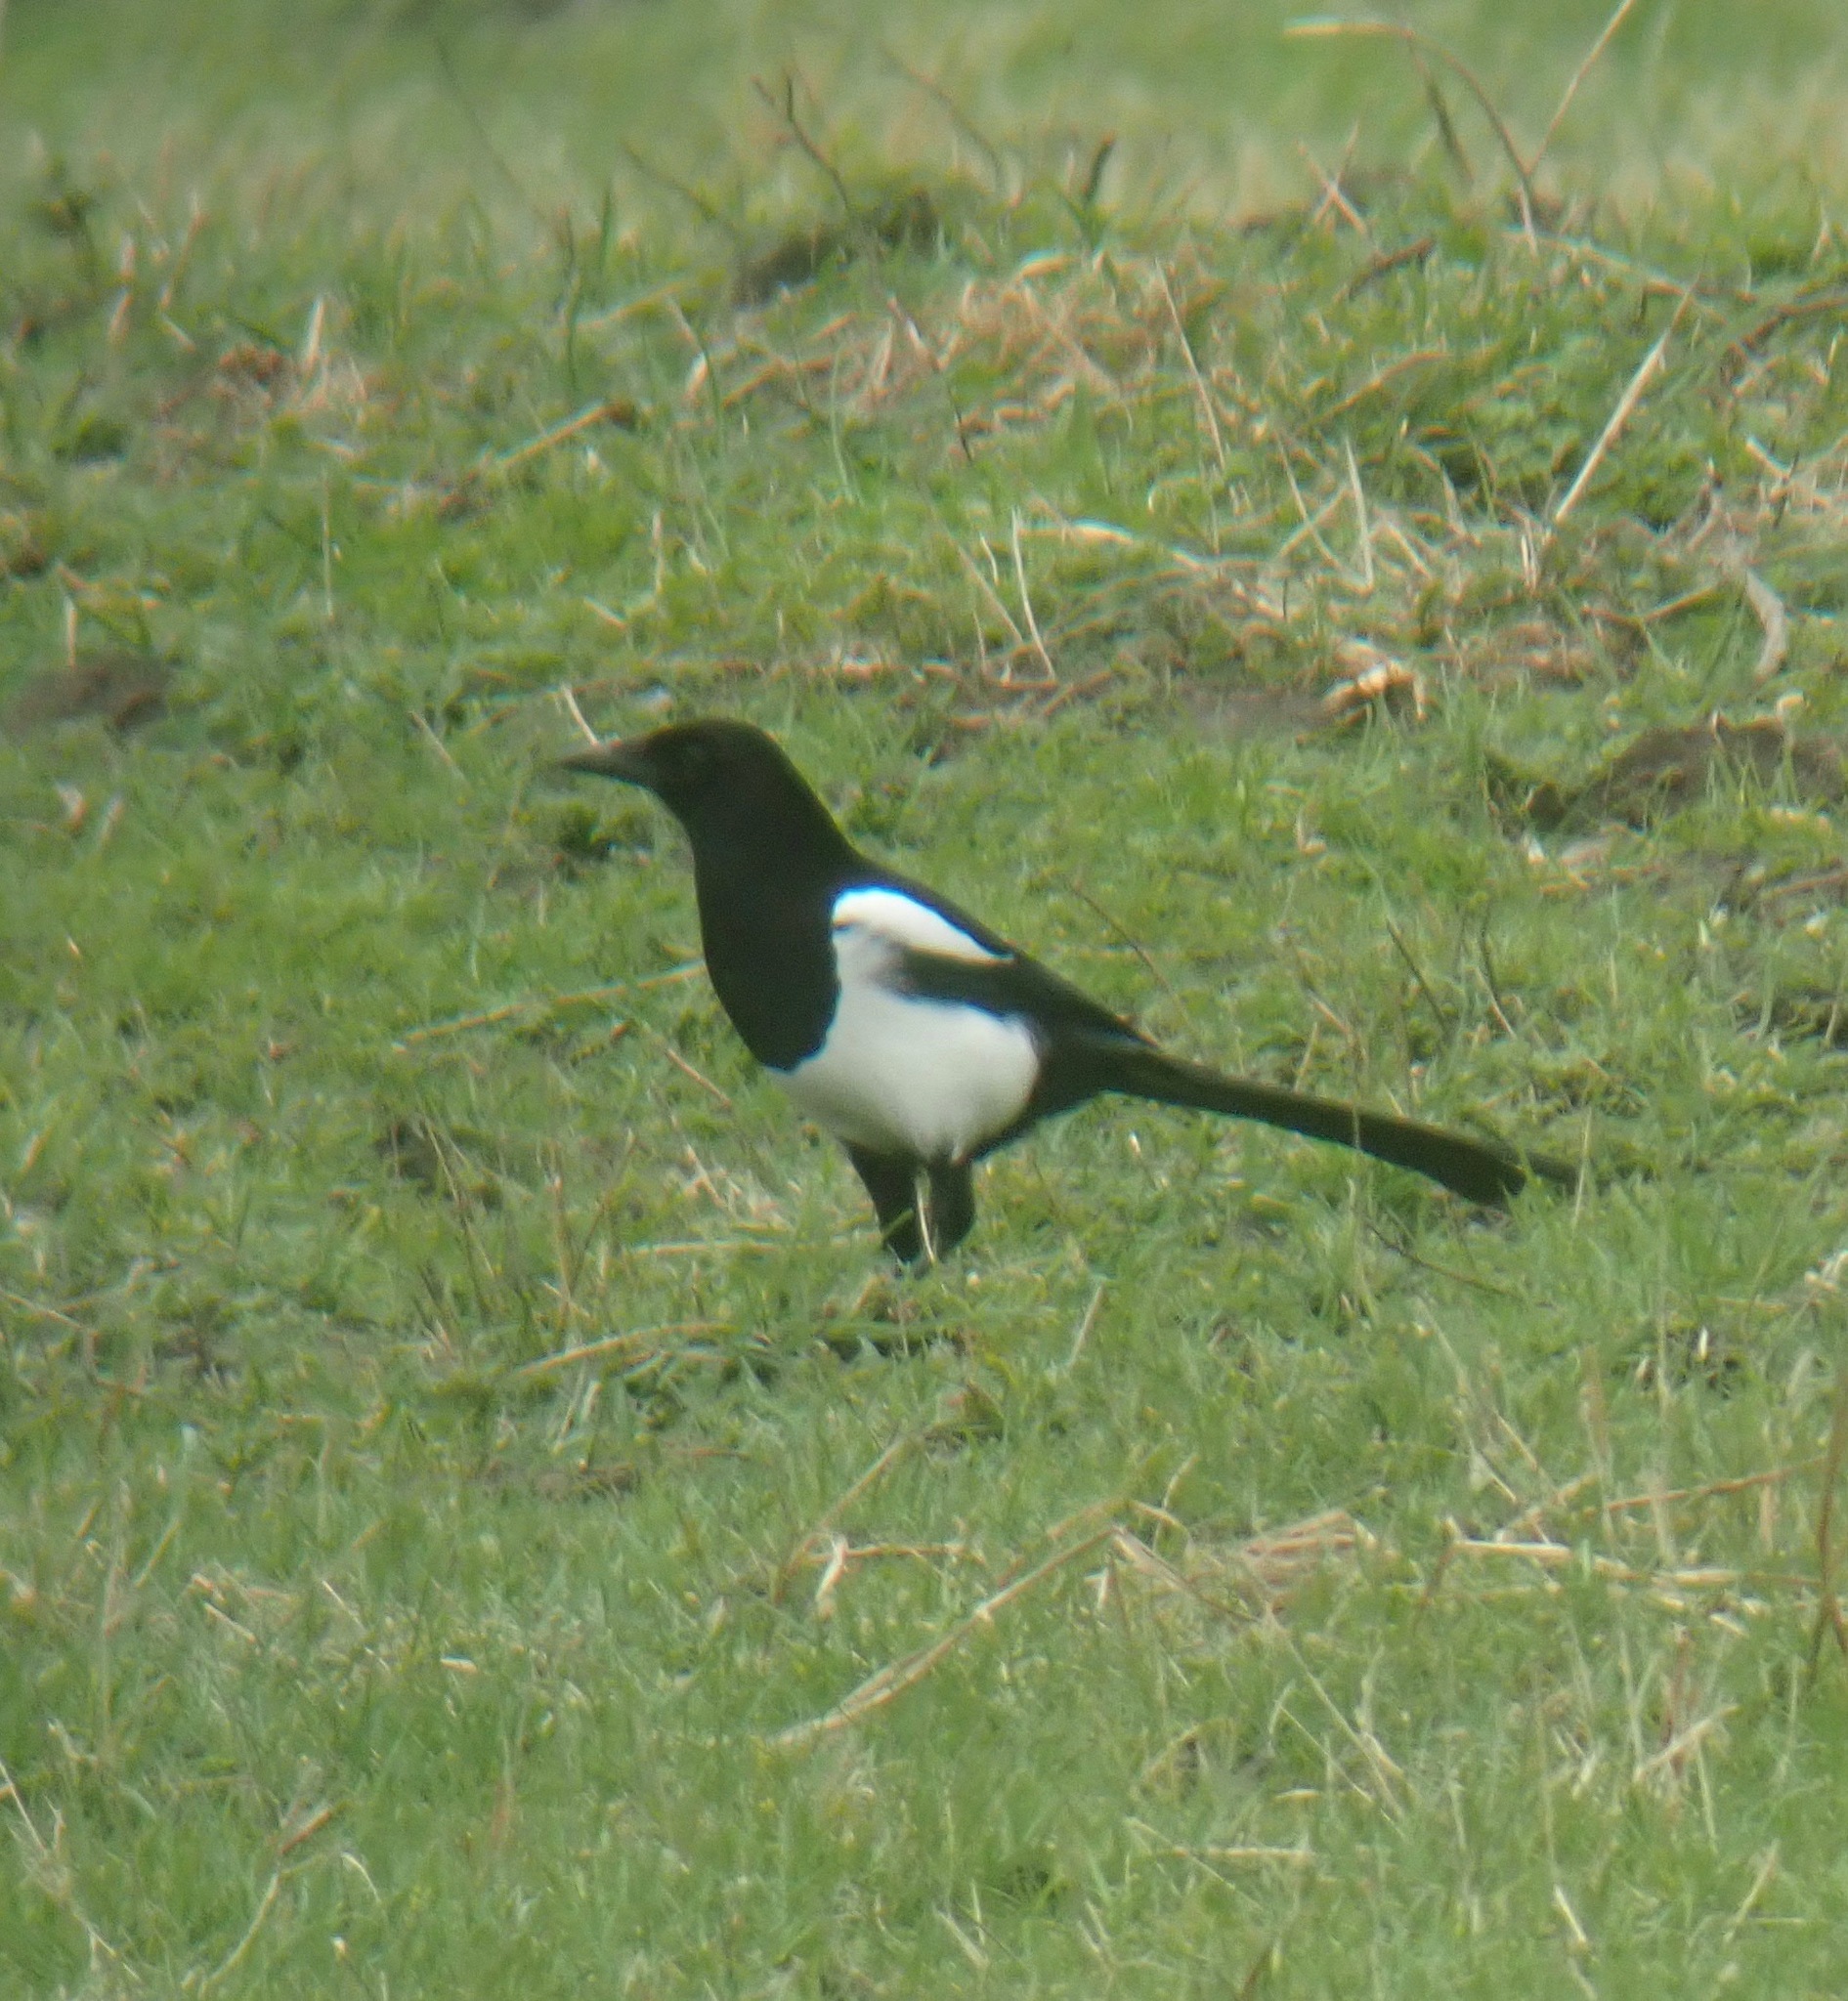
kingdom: Animalia
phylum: Chordata
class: Aves
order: Passeriformes
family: Corvidae
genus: Pica
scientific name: Pica pica
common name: Eurasian magpie
